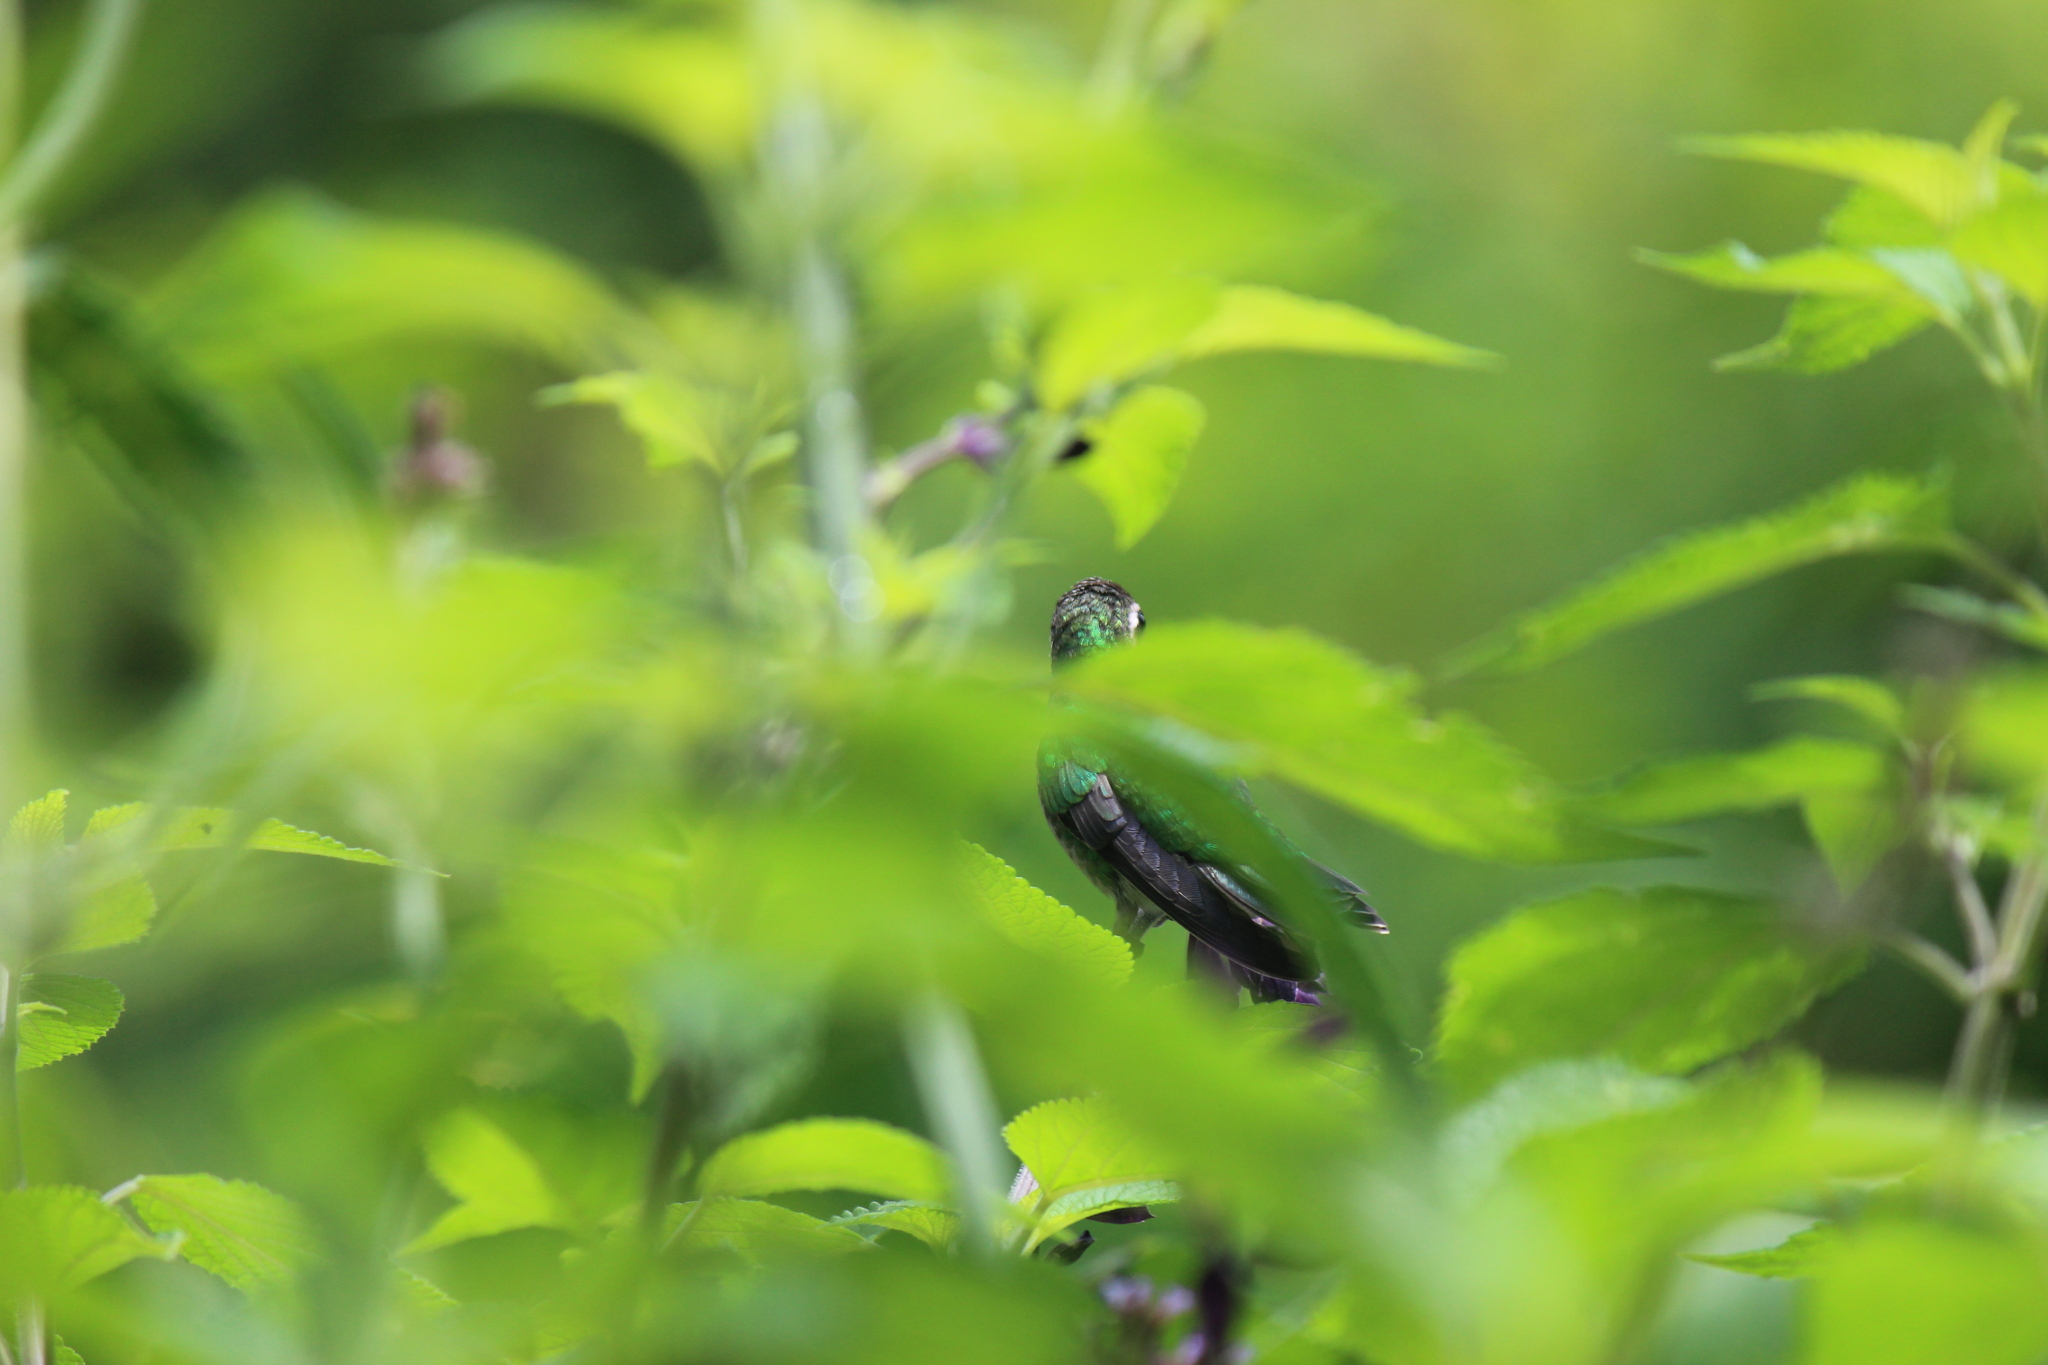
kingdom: Animalia
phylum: Chordata
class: Aves
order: Apodiformes
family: Trochilidae
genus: Chlorostilbon
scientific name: Chlorostilbon lucidus
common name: Glittering-bellied emerald
